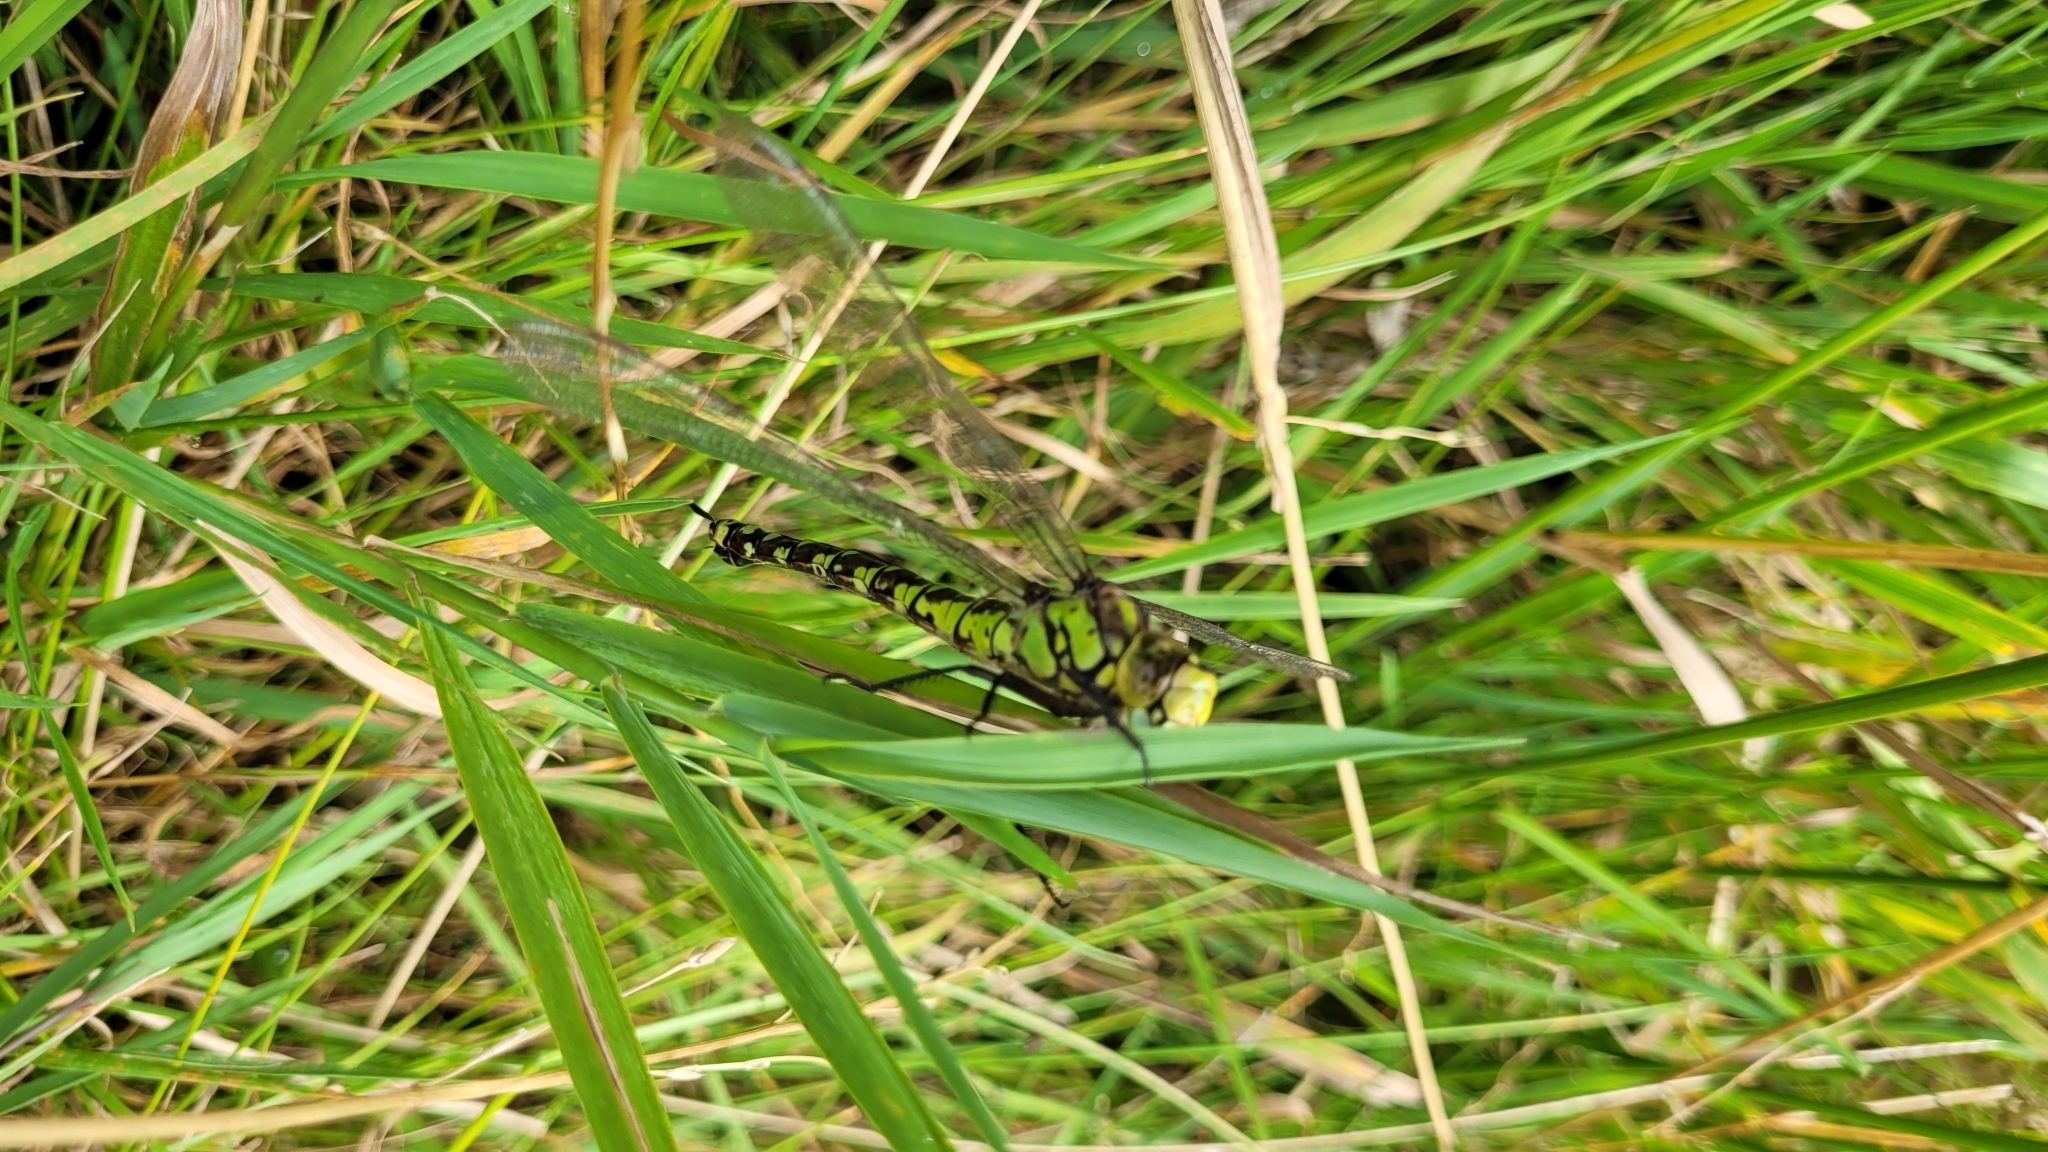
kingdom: Animalia
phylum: Arthropoda
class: Insecta
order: Odonata
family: Aeshnidae
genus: Aeshna
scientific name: Aeshna cyanea
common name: Southern hawker
